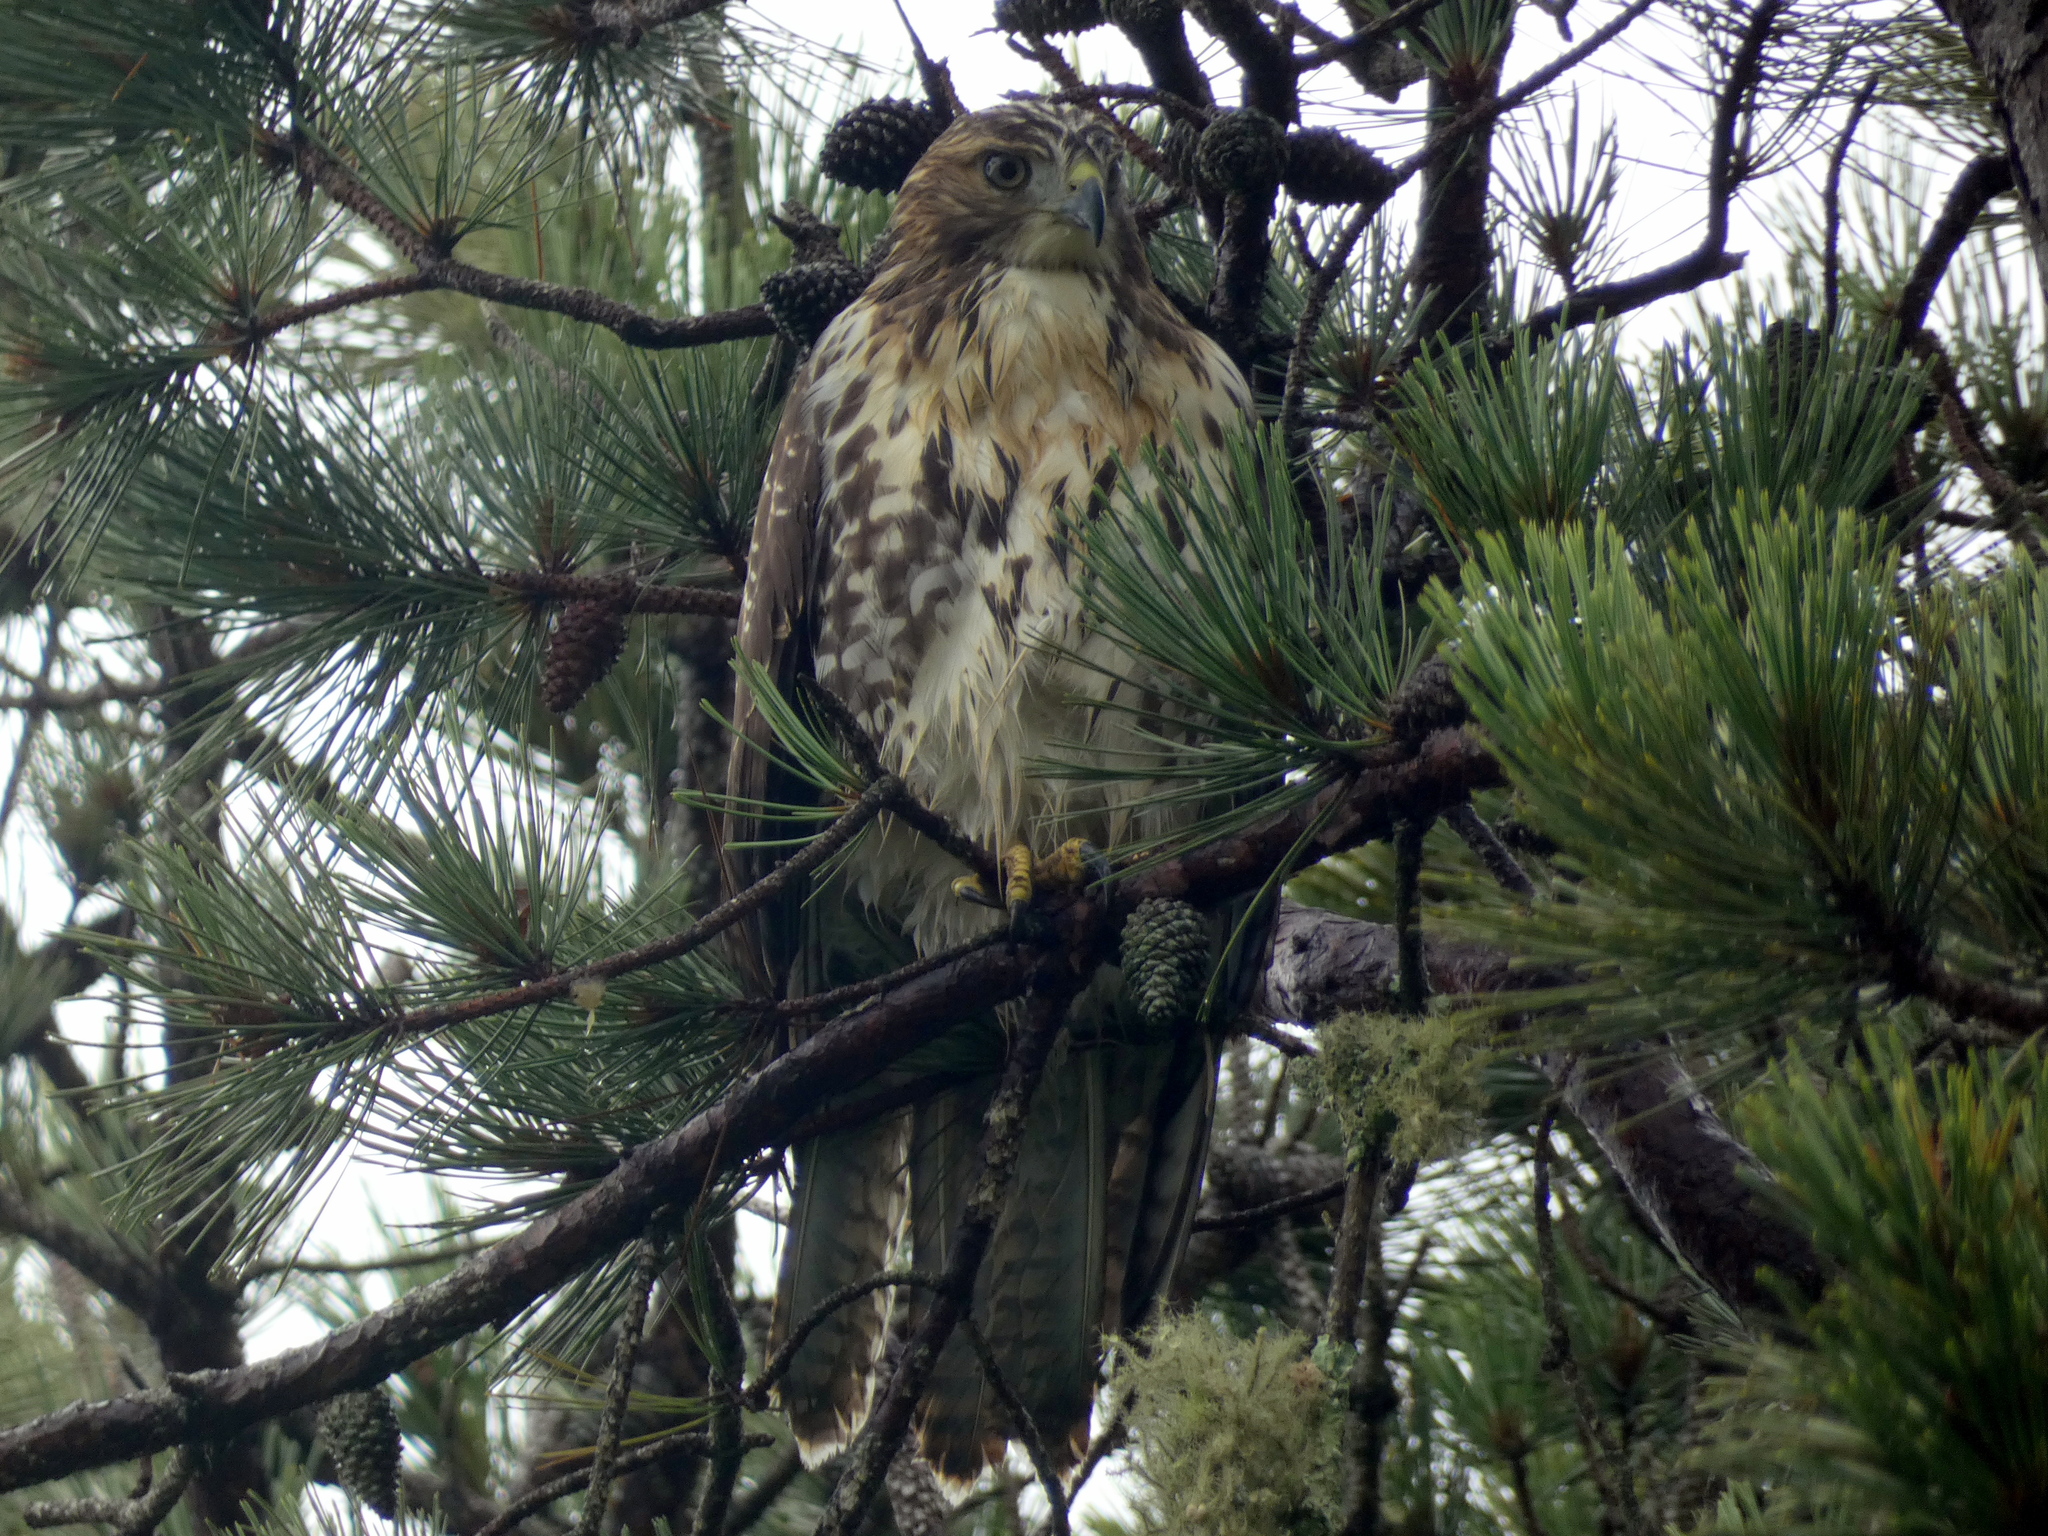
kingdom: Animalia
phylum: Chordata
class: Aves
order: Accipitriformes
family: Accipitridae
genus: Buteo
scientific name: Buteo jamaicensis
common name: Red-tailed hawk
